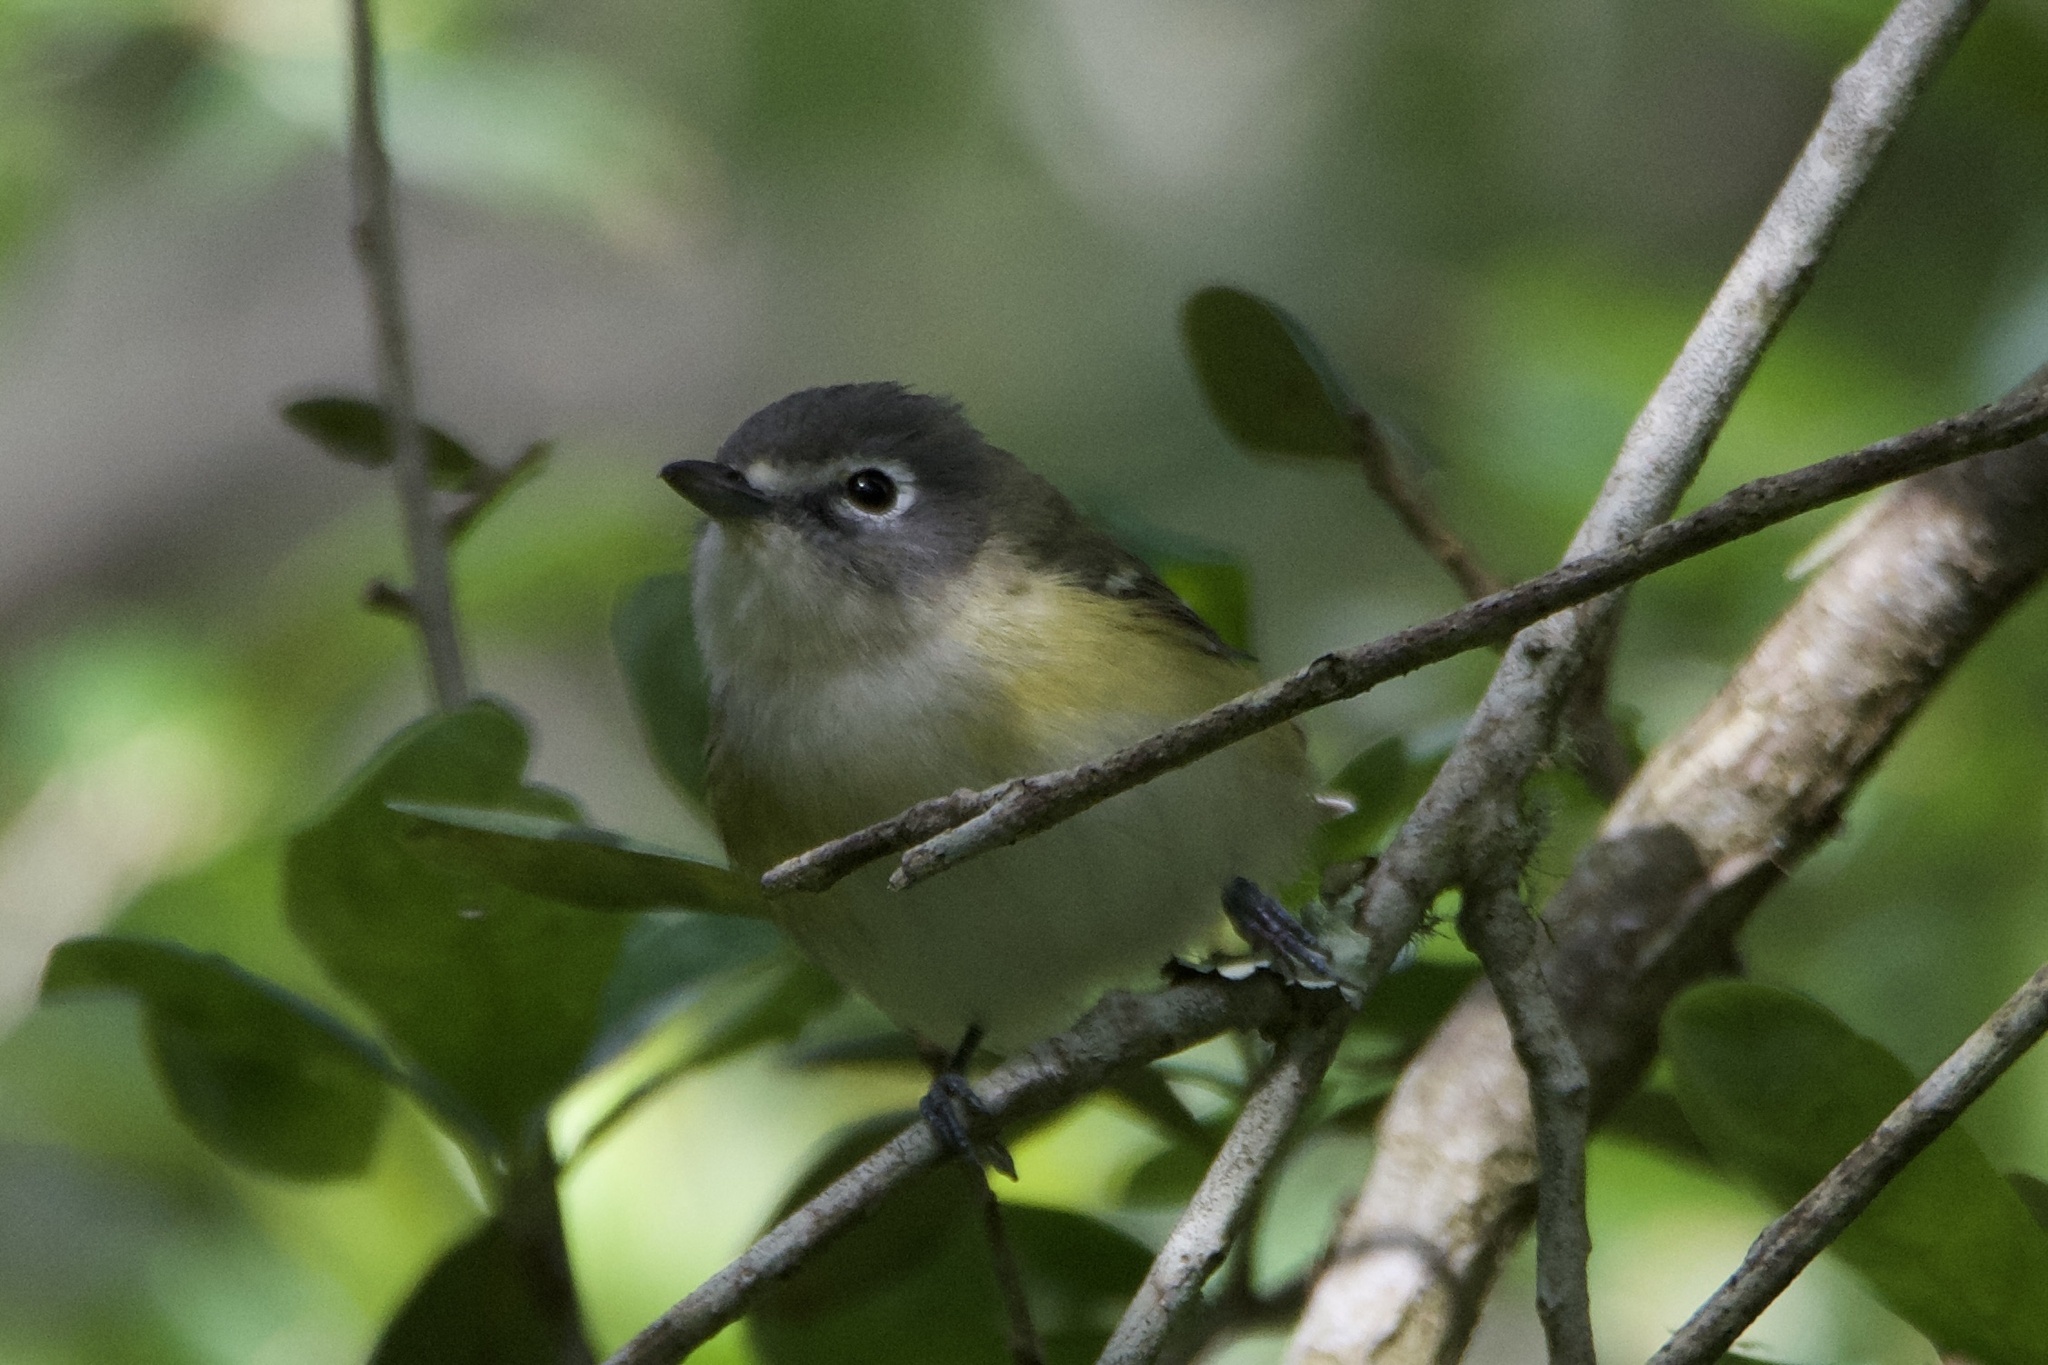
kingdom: Animalia
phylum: Chordata
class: Aves
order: Passeriformes
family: Vireonidae
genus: Vireo
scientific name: Vireo solitarius
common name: Blue-headed vireo
